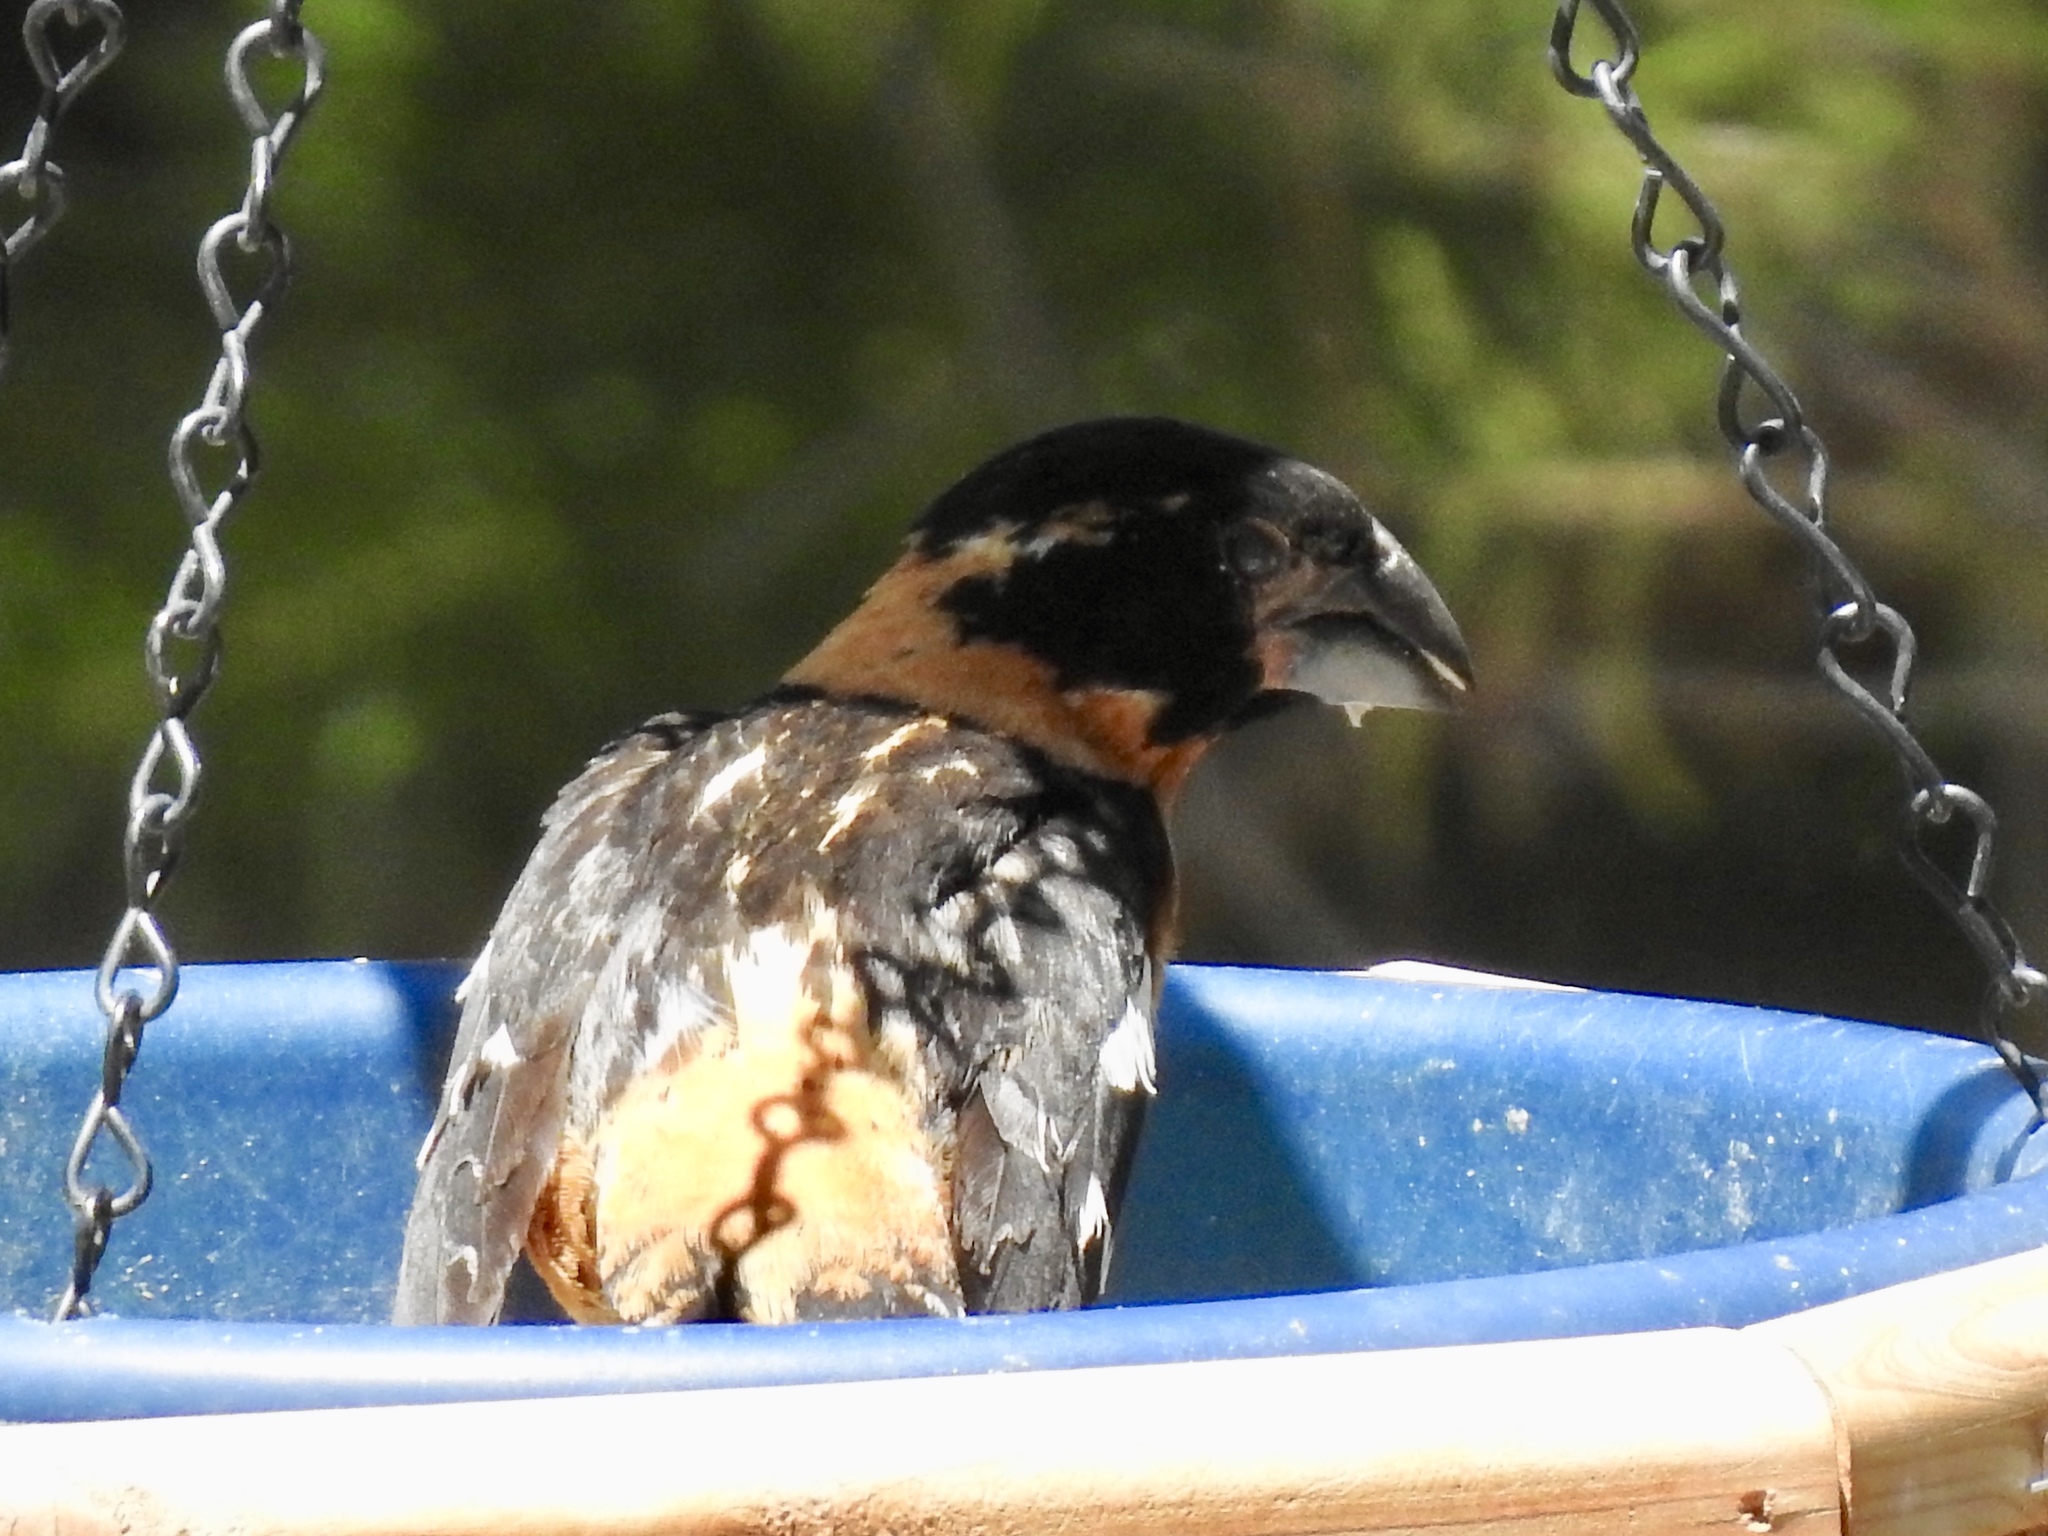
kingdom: Animalia
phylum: Chordata
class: Aves
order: Passeriformes
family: Cardinalidae
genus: Pheucticus
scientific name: Pheucticus melanocephalus
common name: Black-headed grosbeak
